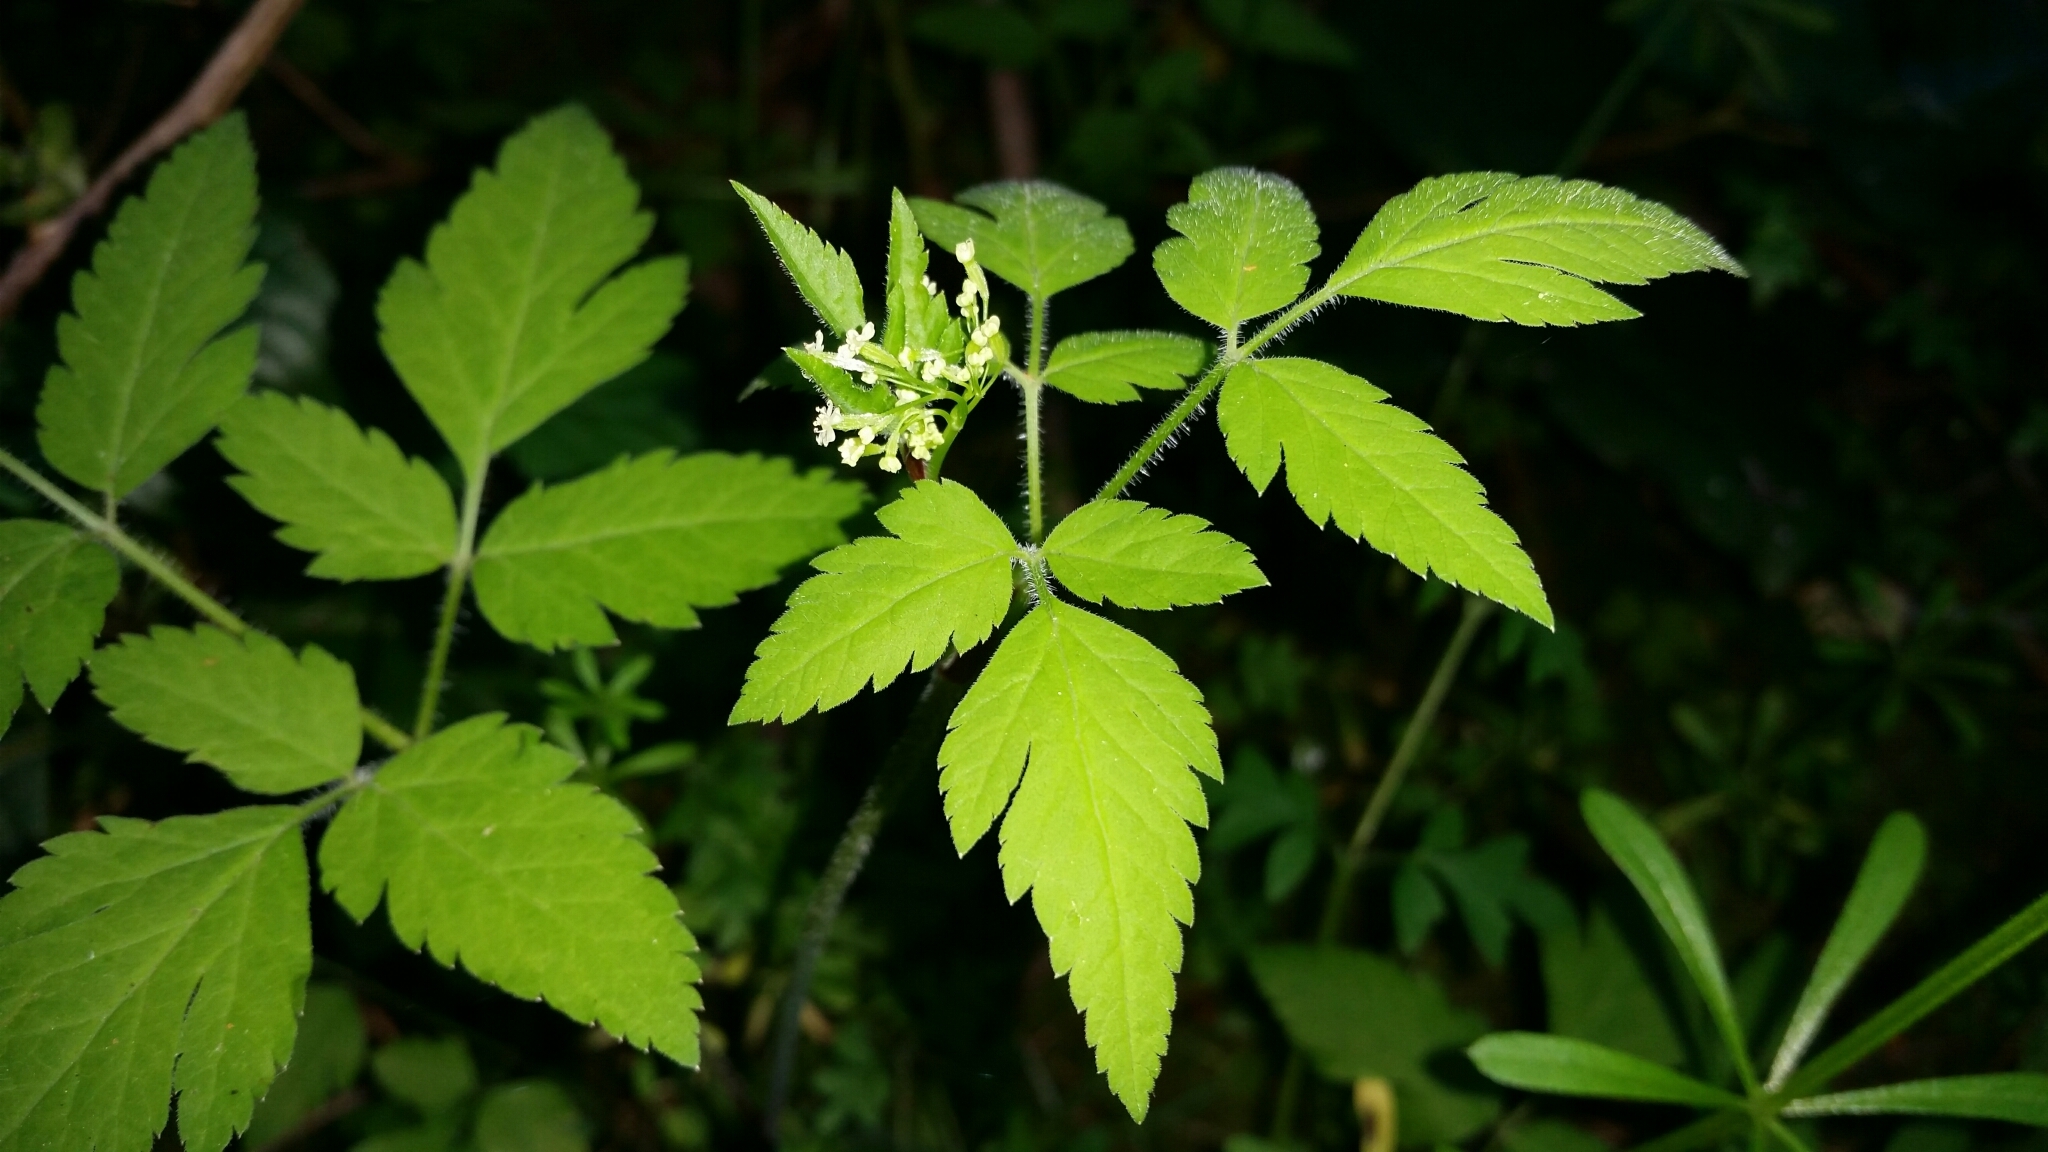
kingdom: Plantae
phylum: Tracheophyta
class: Magnoliopsida
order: Apiales
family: Apiaceae
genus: Osmorhiza
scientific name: Osmorhiza berteroi
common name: Mountain sweet cicely
